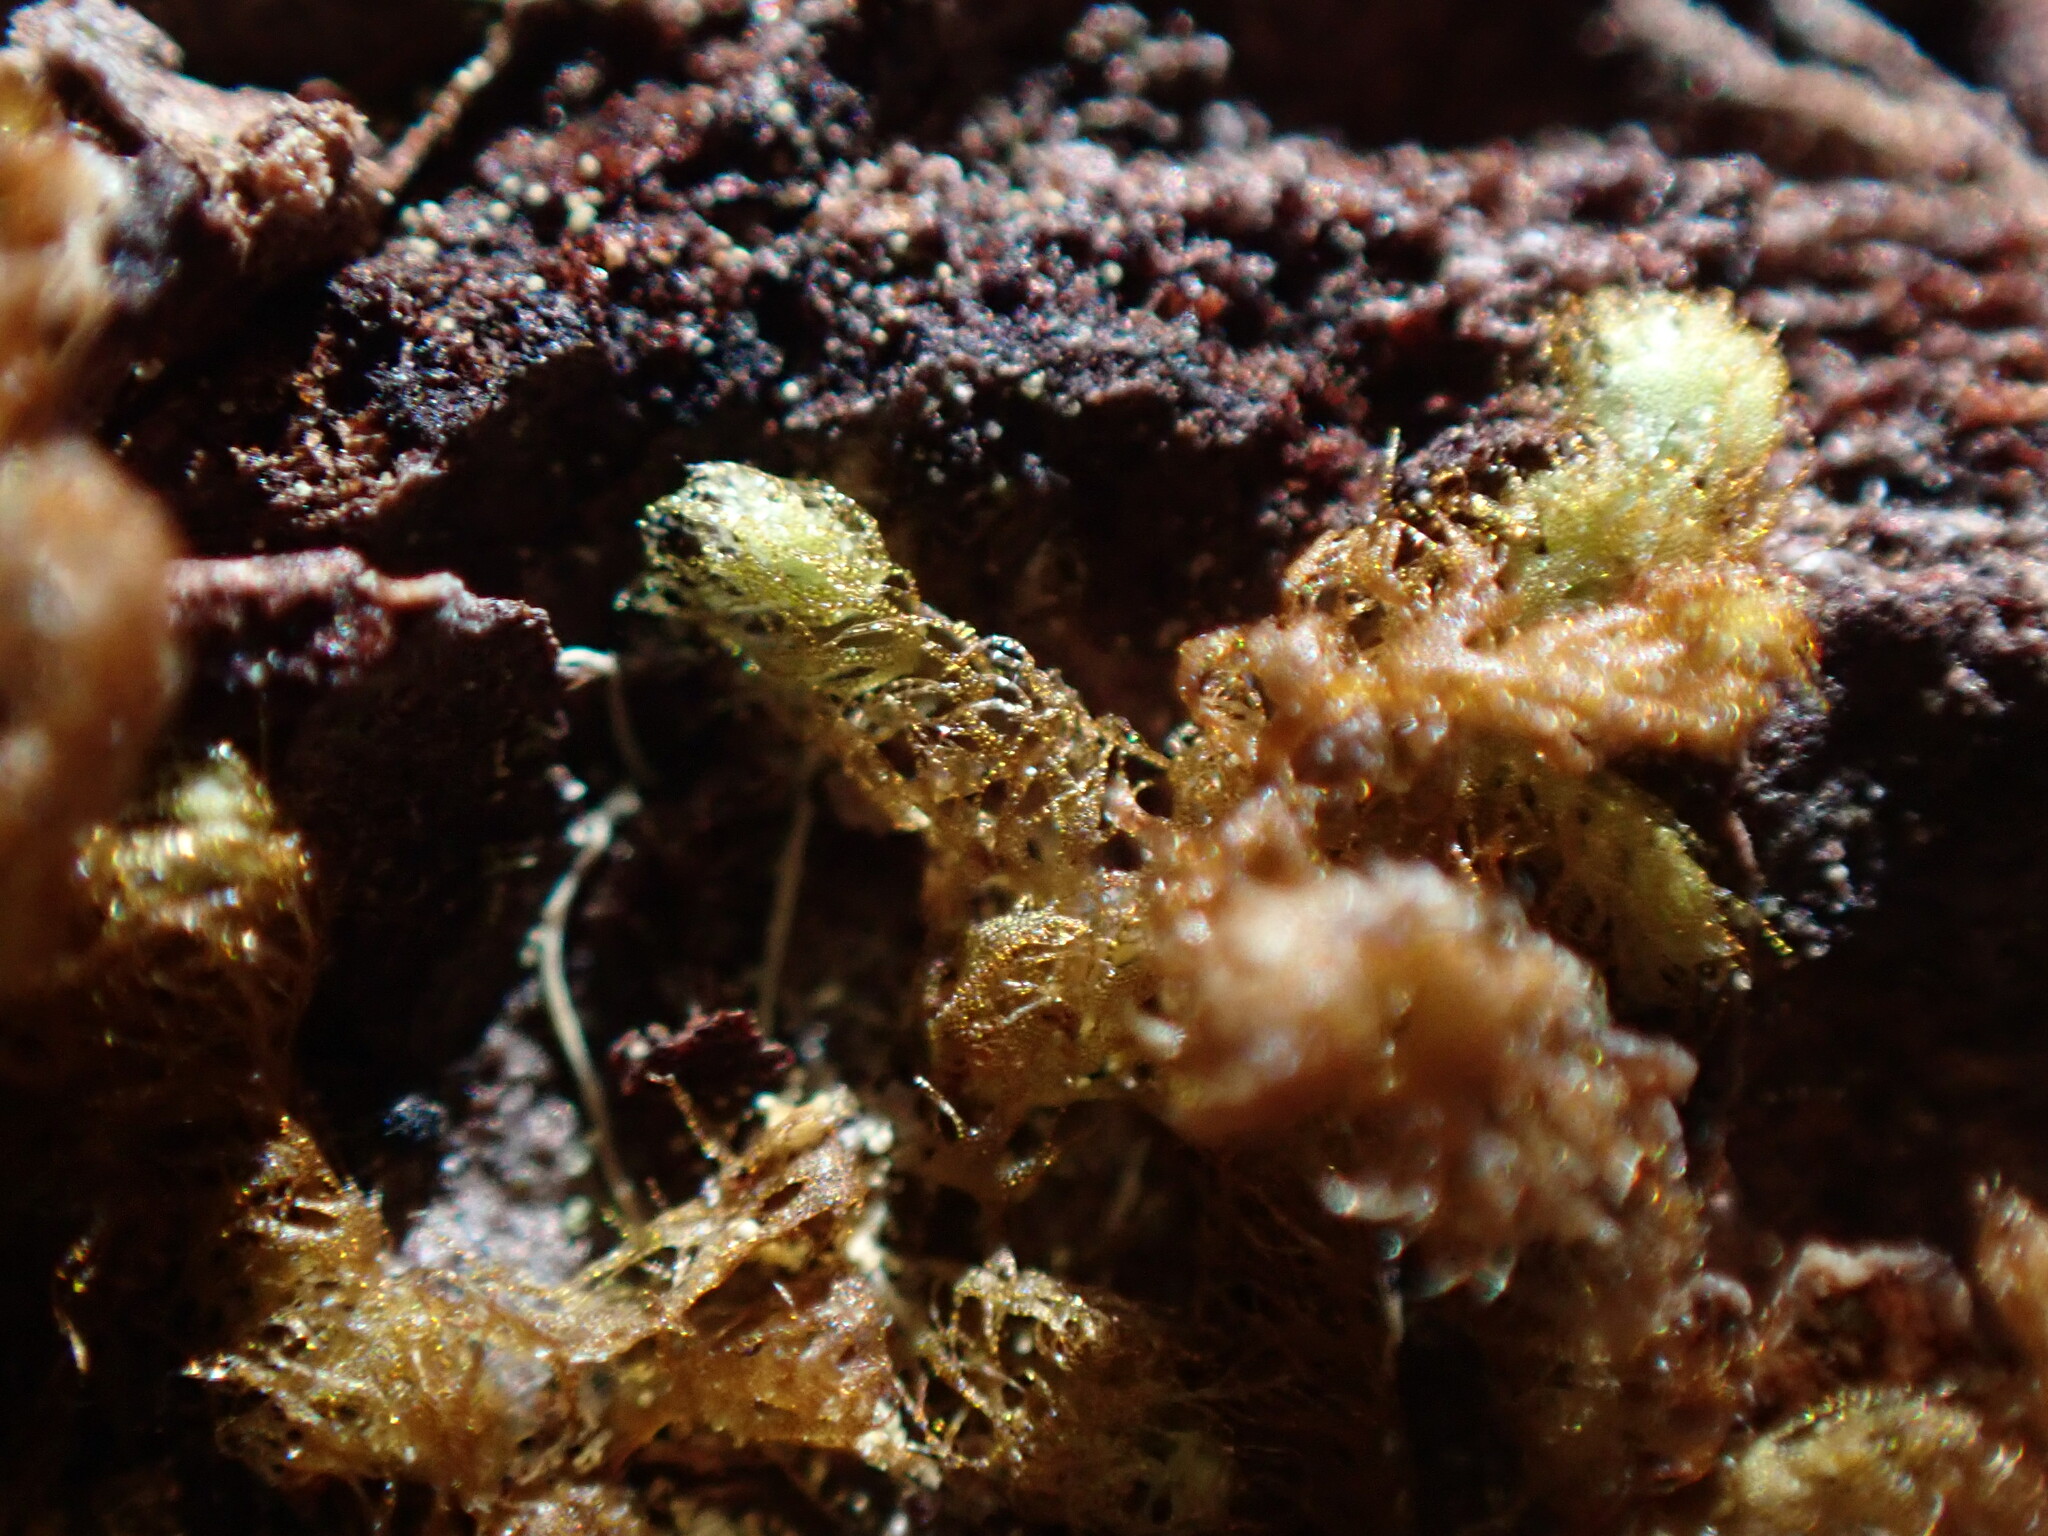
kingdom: Plantae
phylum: Marchantiophyta
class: Jungermanniopsida
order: Ptilidiales
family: Ptilidiaceae
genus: Ptilidium
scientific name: Ptilidium californicum
